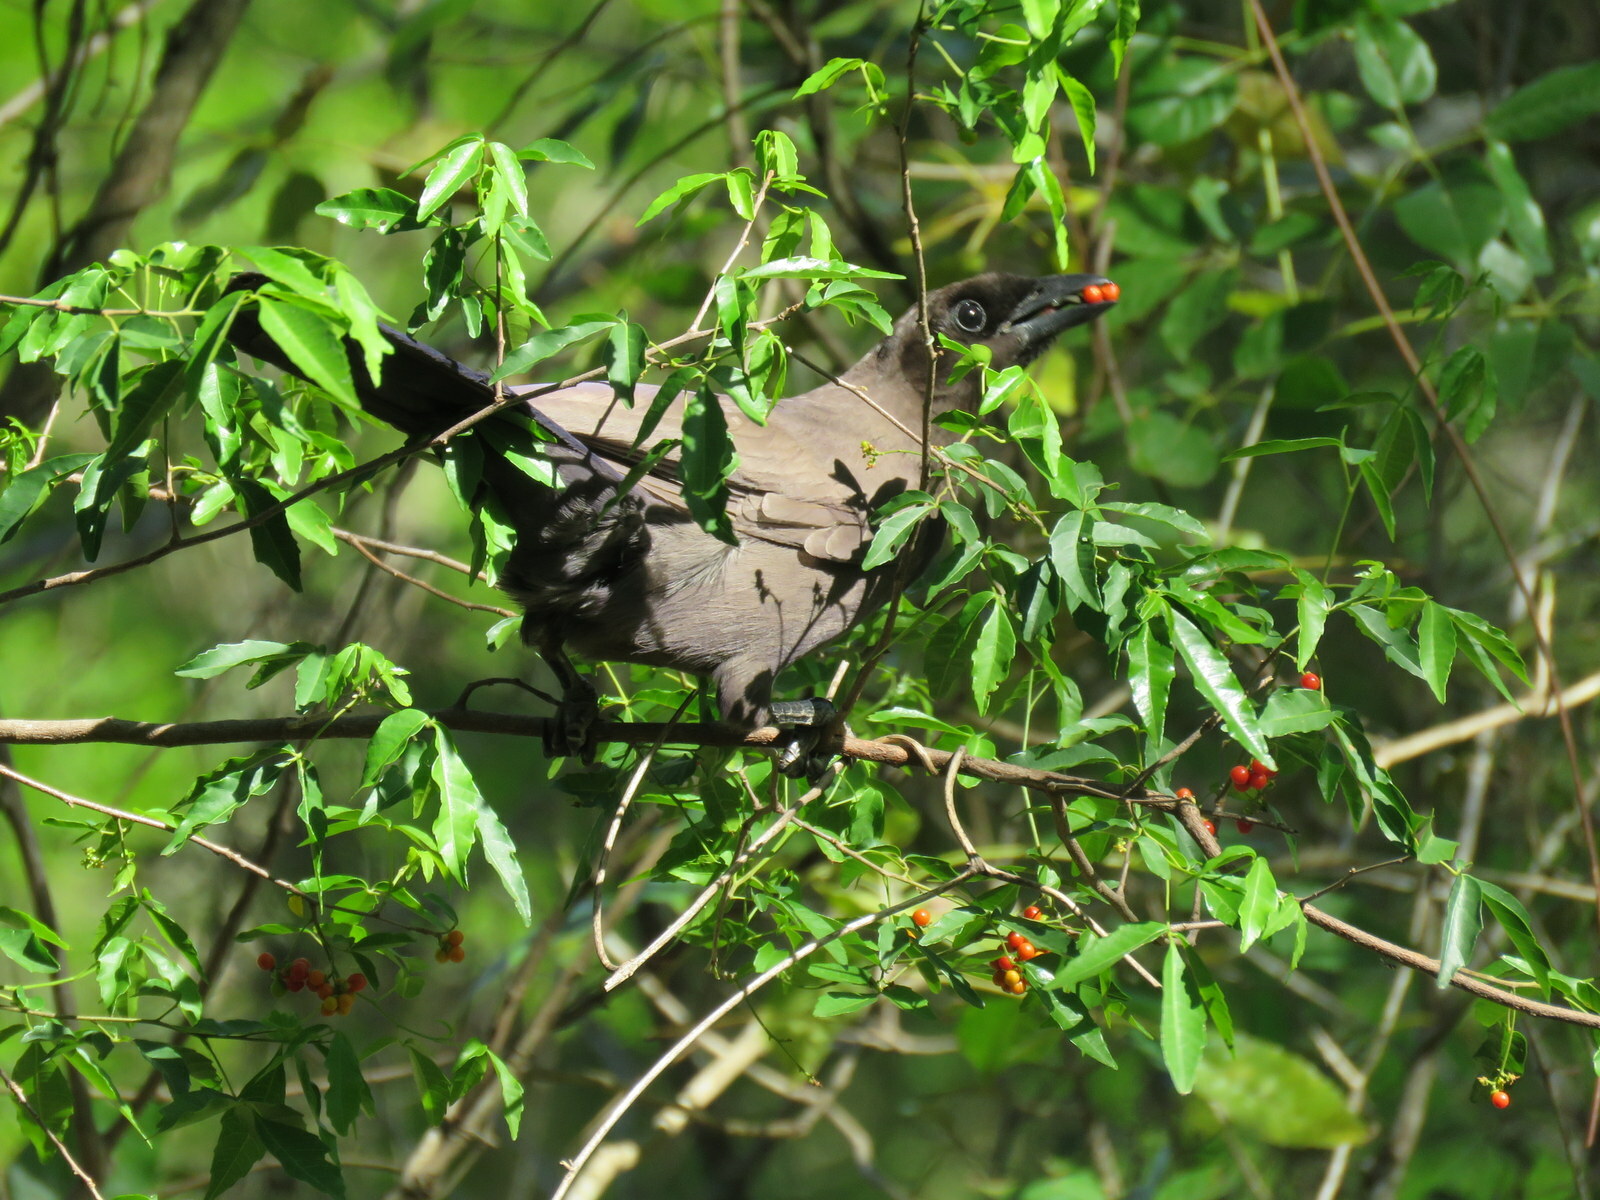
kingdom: Animalia
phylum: Chordata
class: Aves
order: Passeriformes
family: Corvidae
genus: Cyanocorax
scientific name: Cyanocorax cyanomelas
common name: Purplish jay
